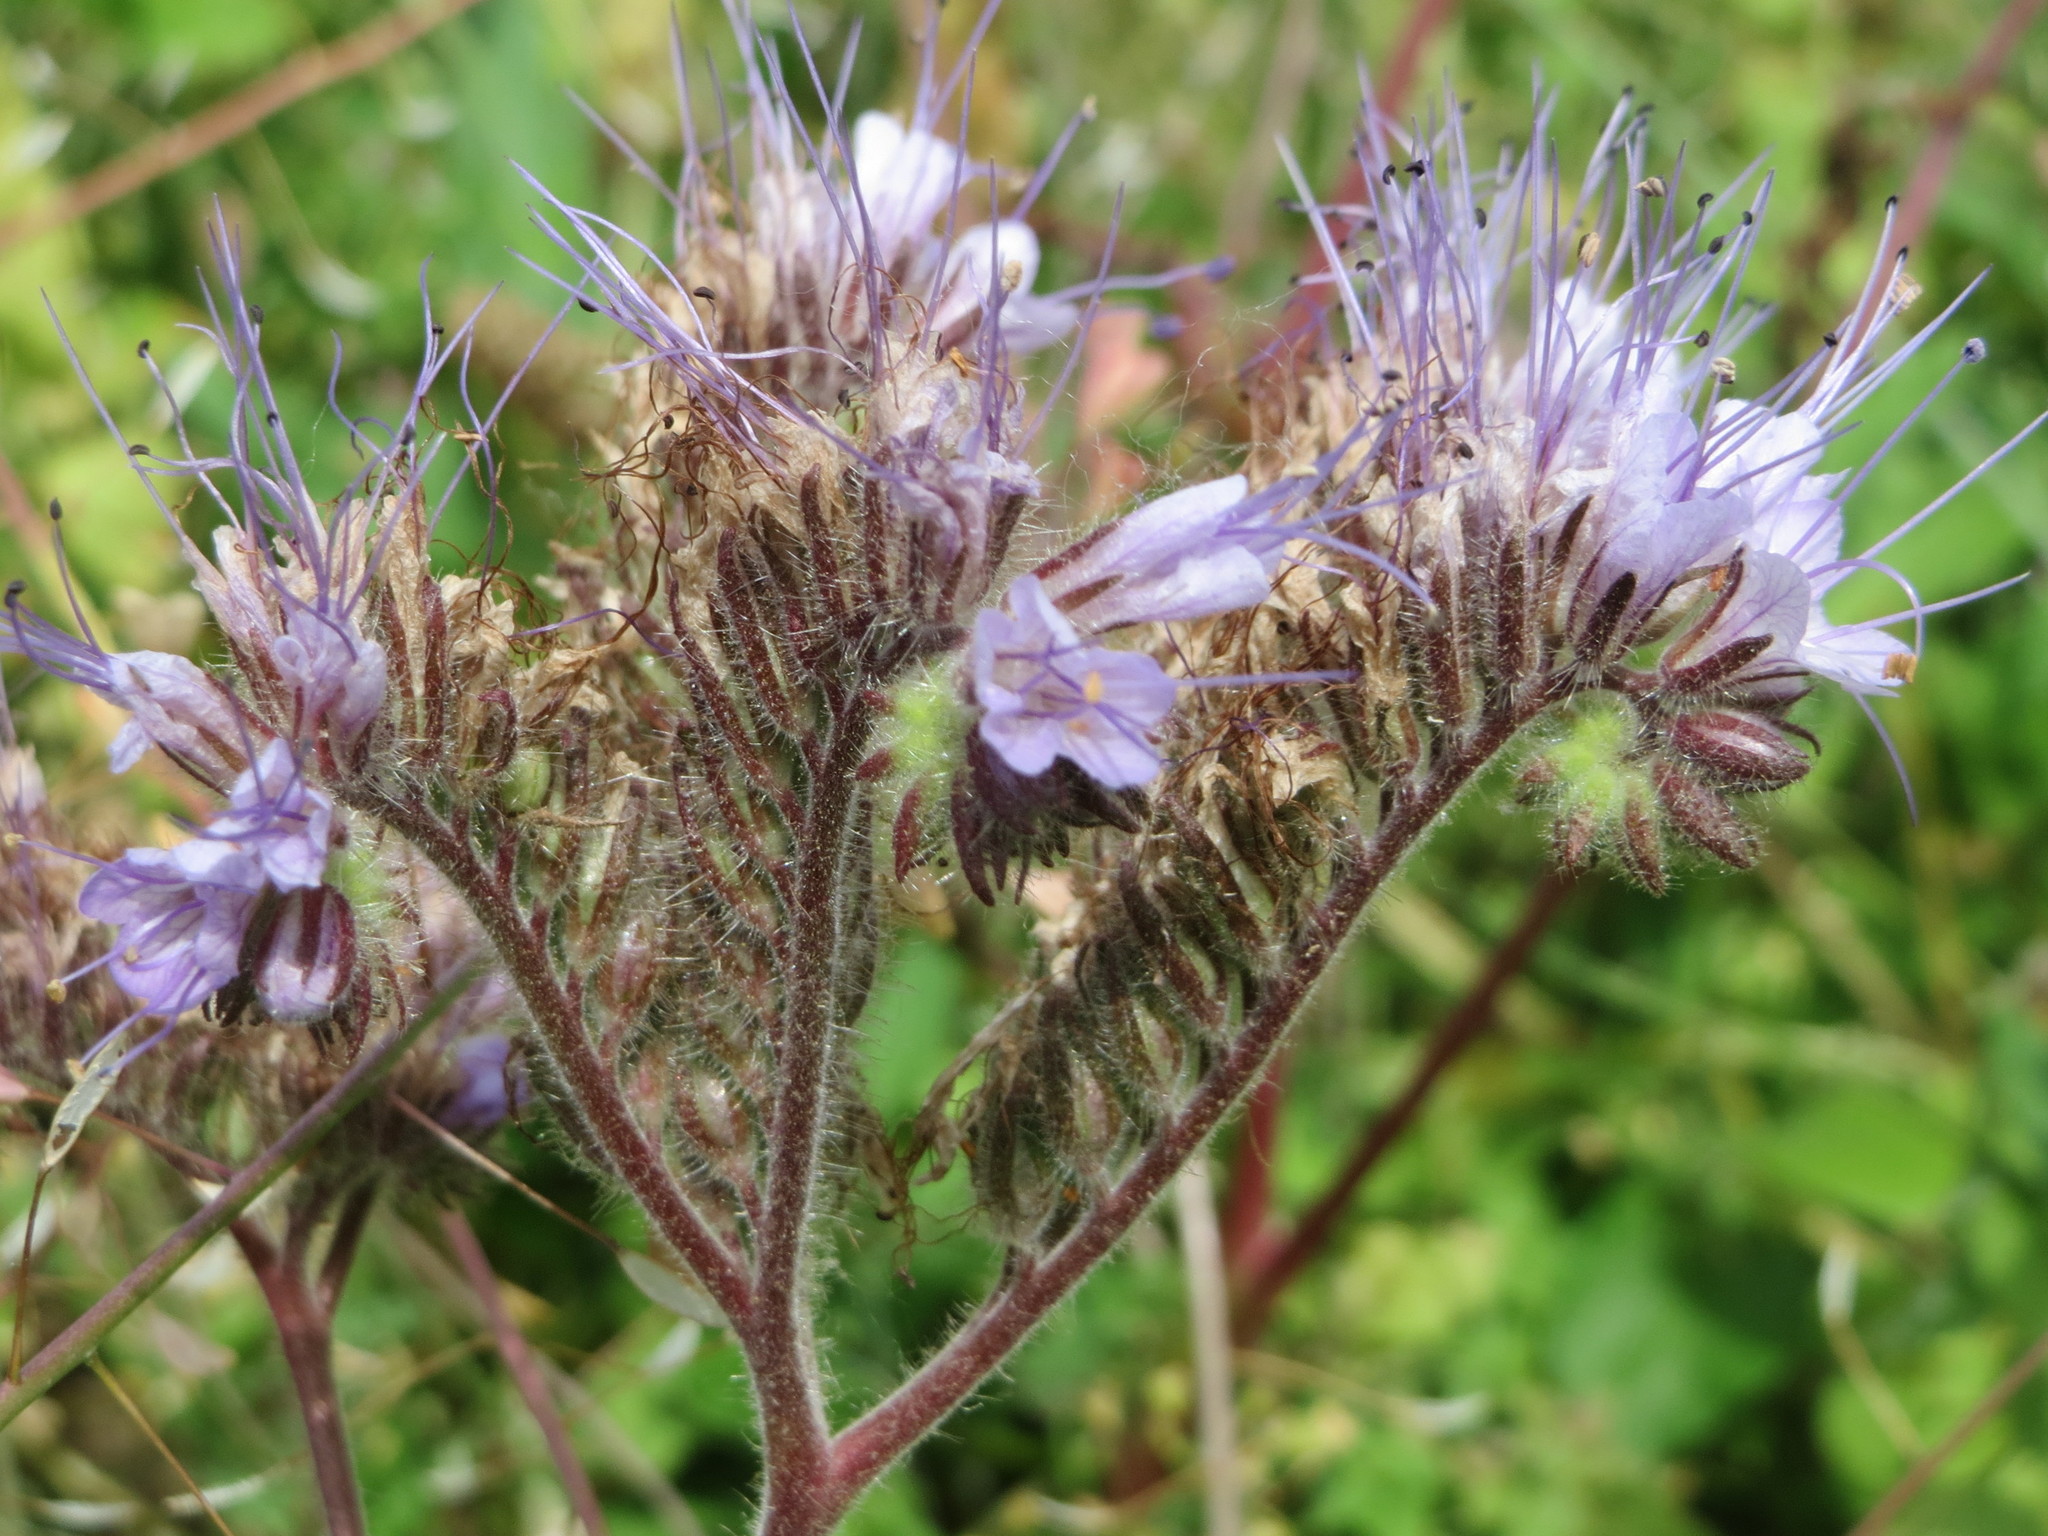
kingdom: Plantae
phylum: Tracheophyta
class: Magnoliopsida
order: Boraginales
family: Hydrophyllaceae
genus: Phacelia
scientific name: Phacelia tanacetifolia
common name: Phacelia
